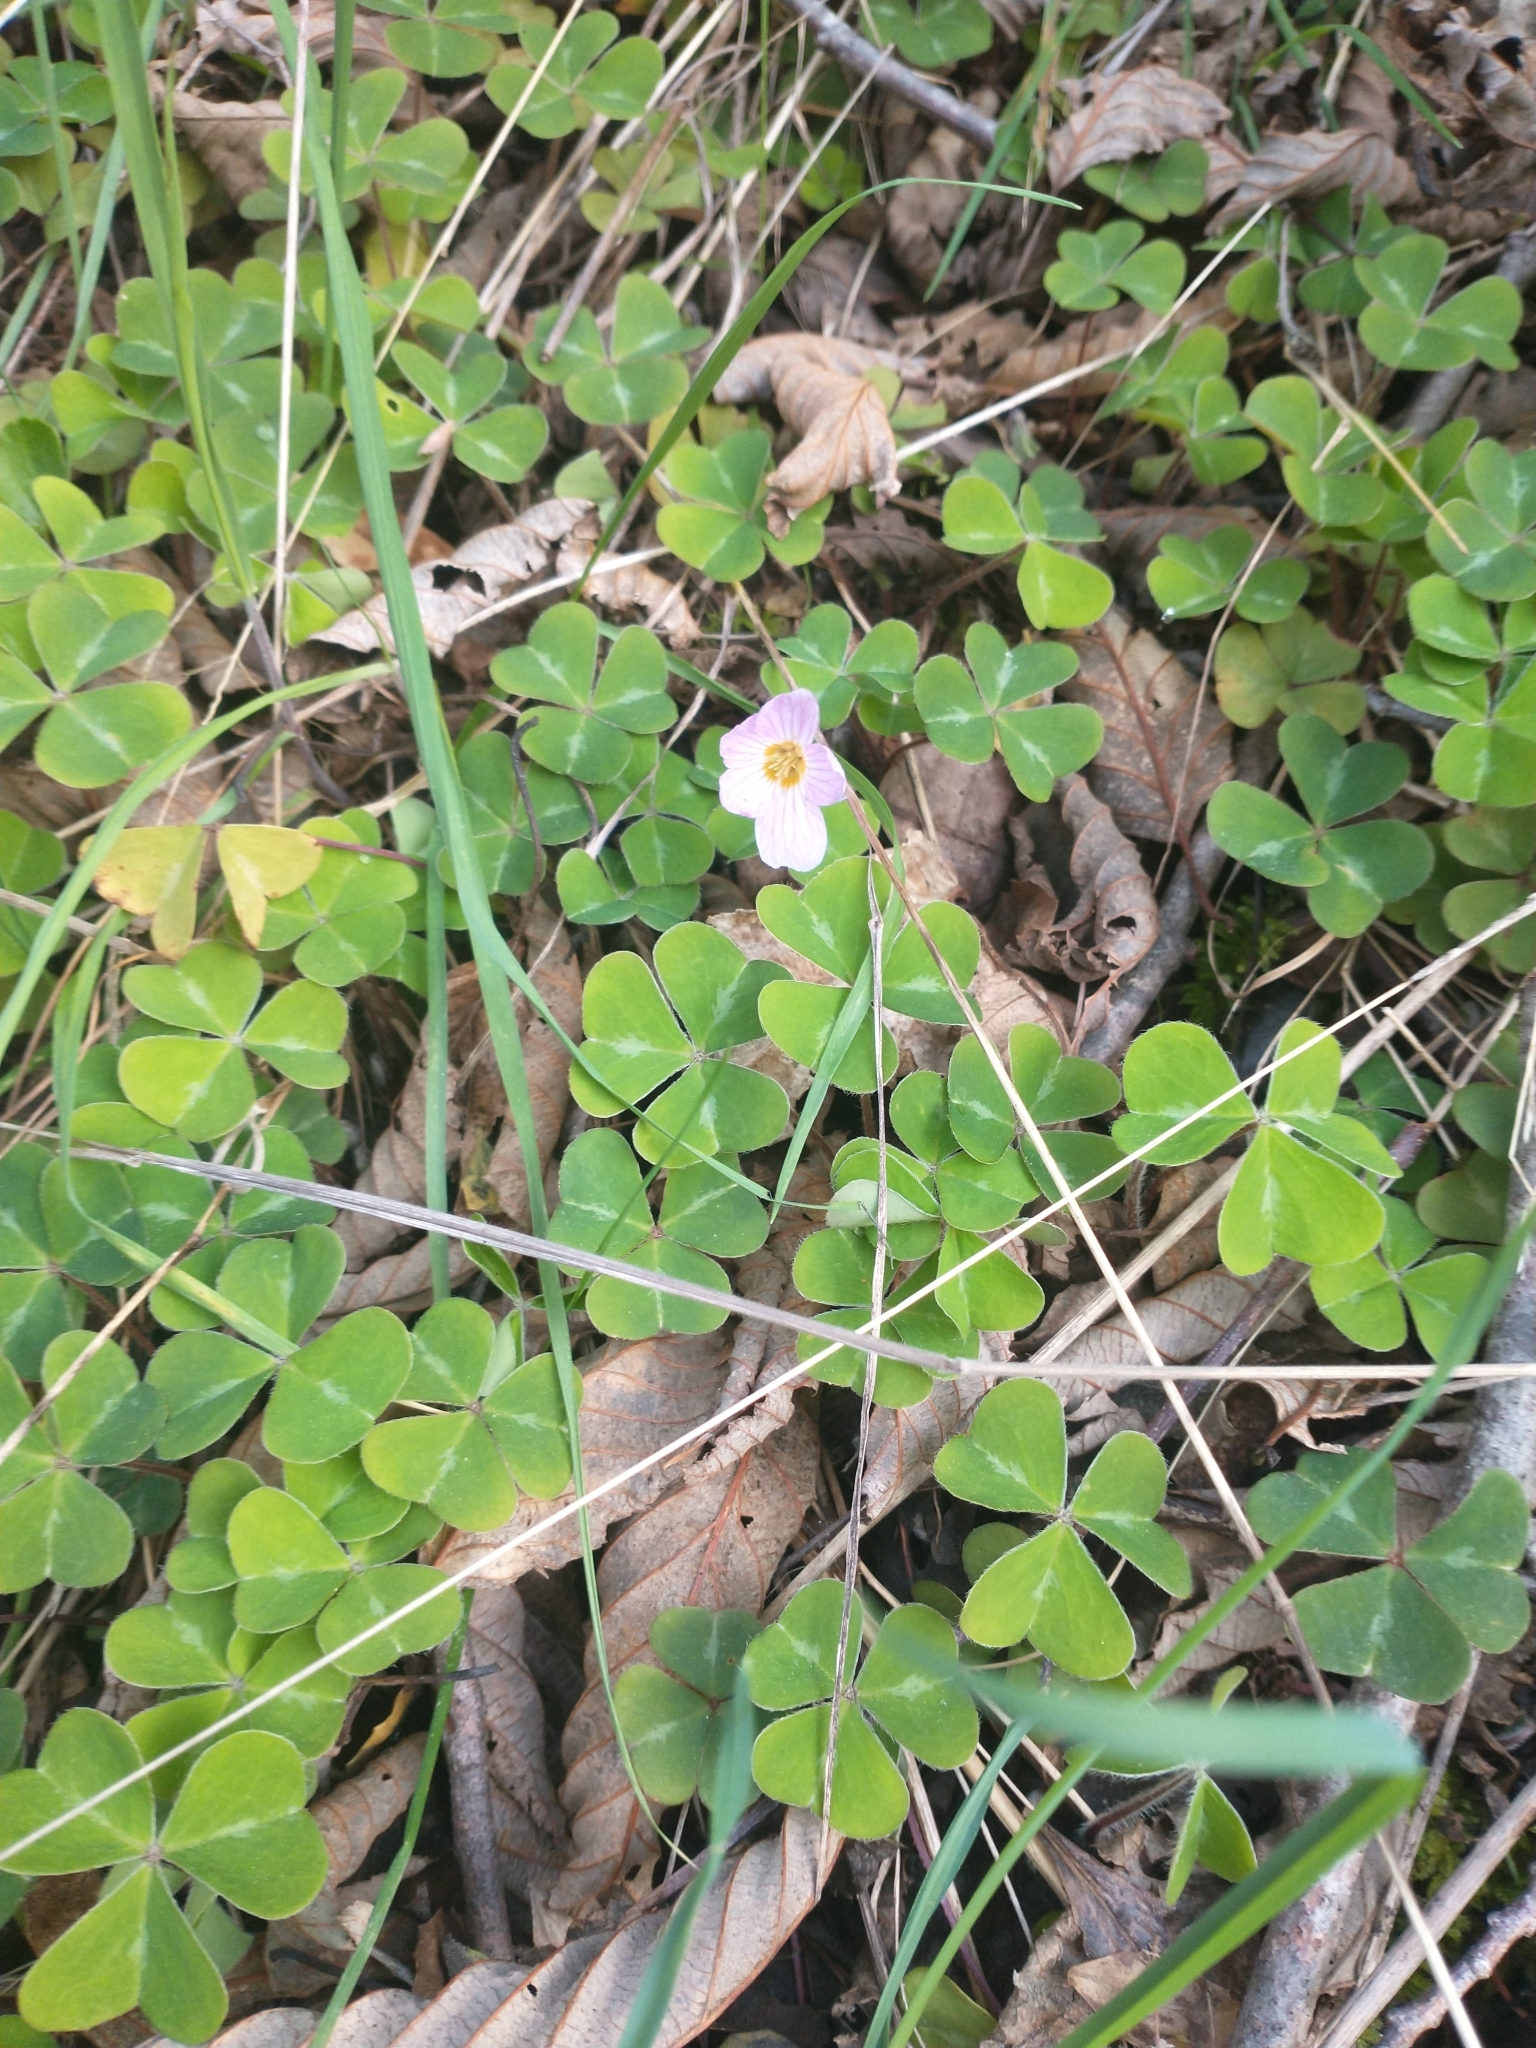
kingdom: Plantae
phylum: Tracheophyta
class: Magnoliopsida
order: Oxalidales
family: Oxalidaceae
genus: Oxalis
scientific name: Oxalis oregana
